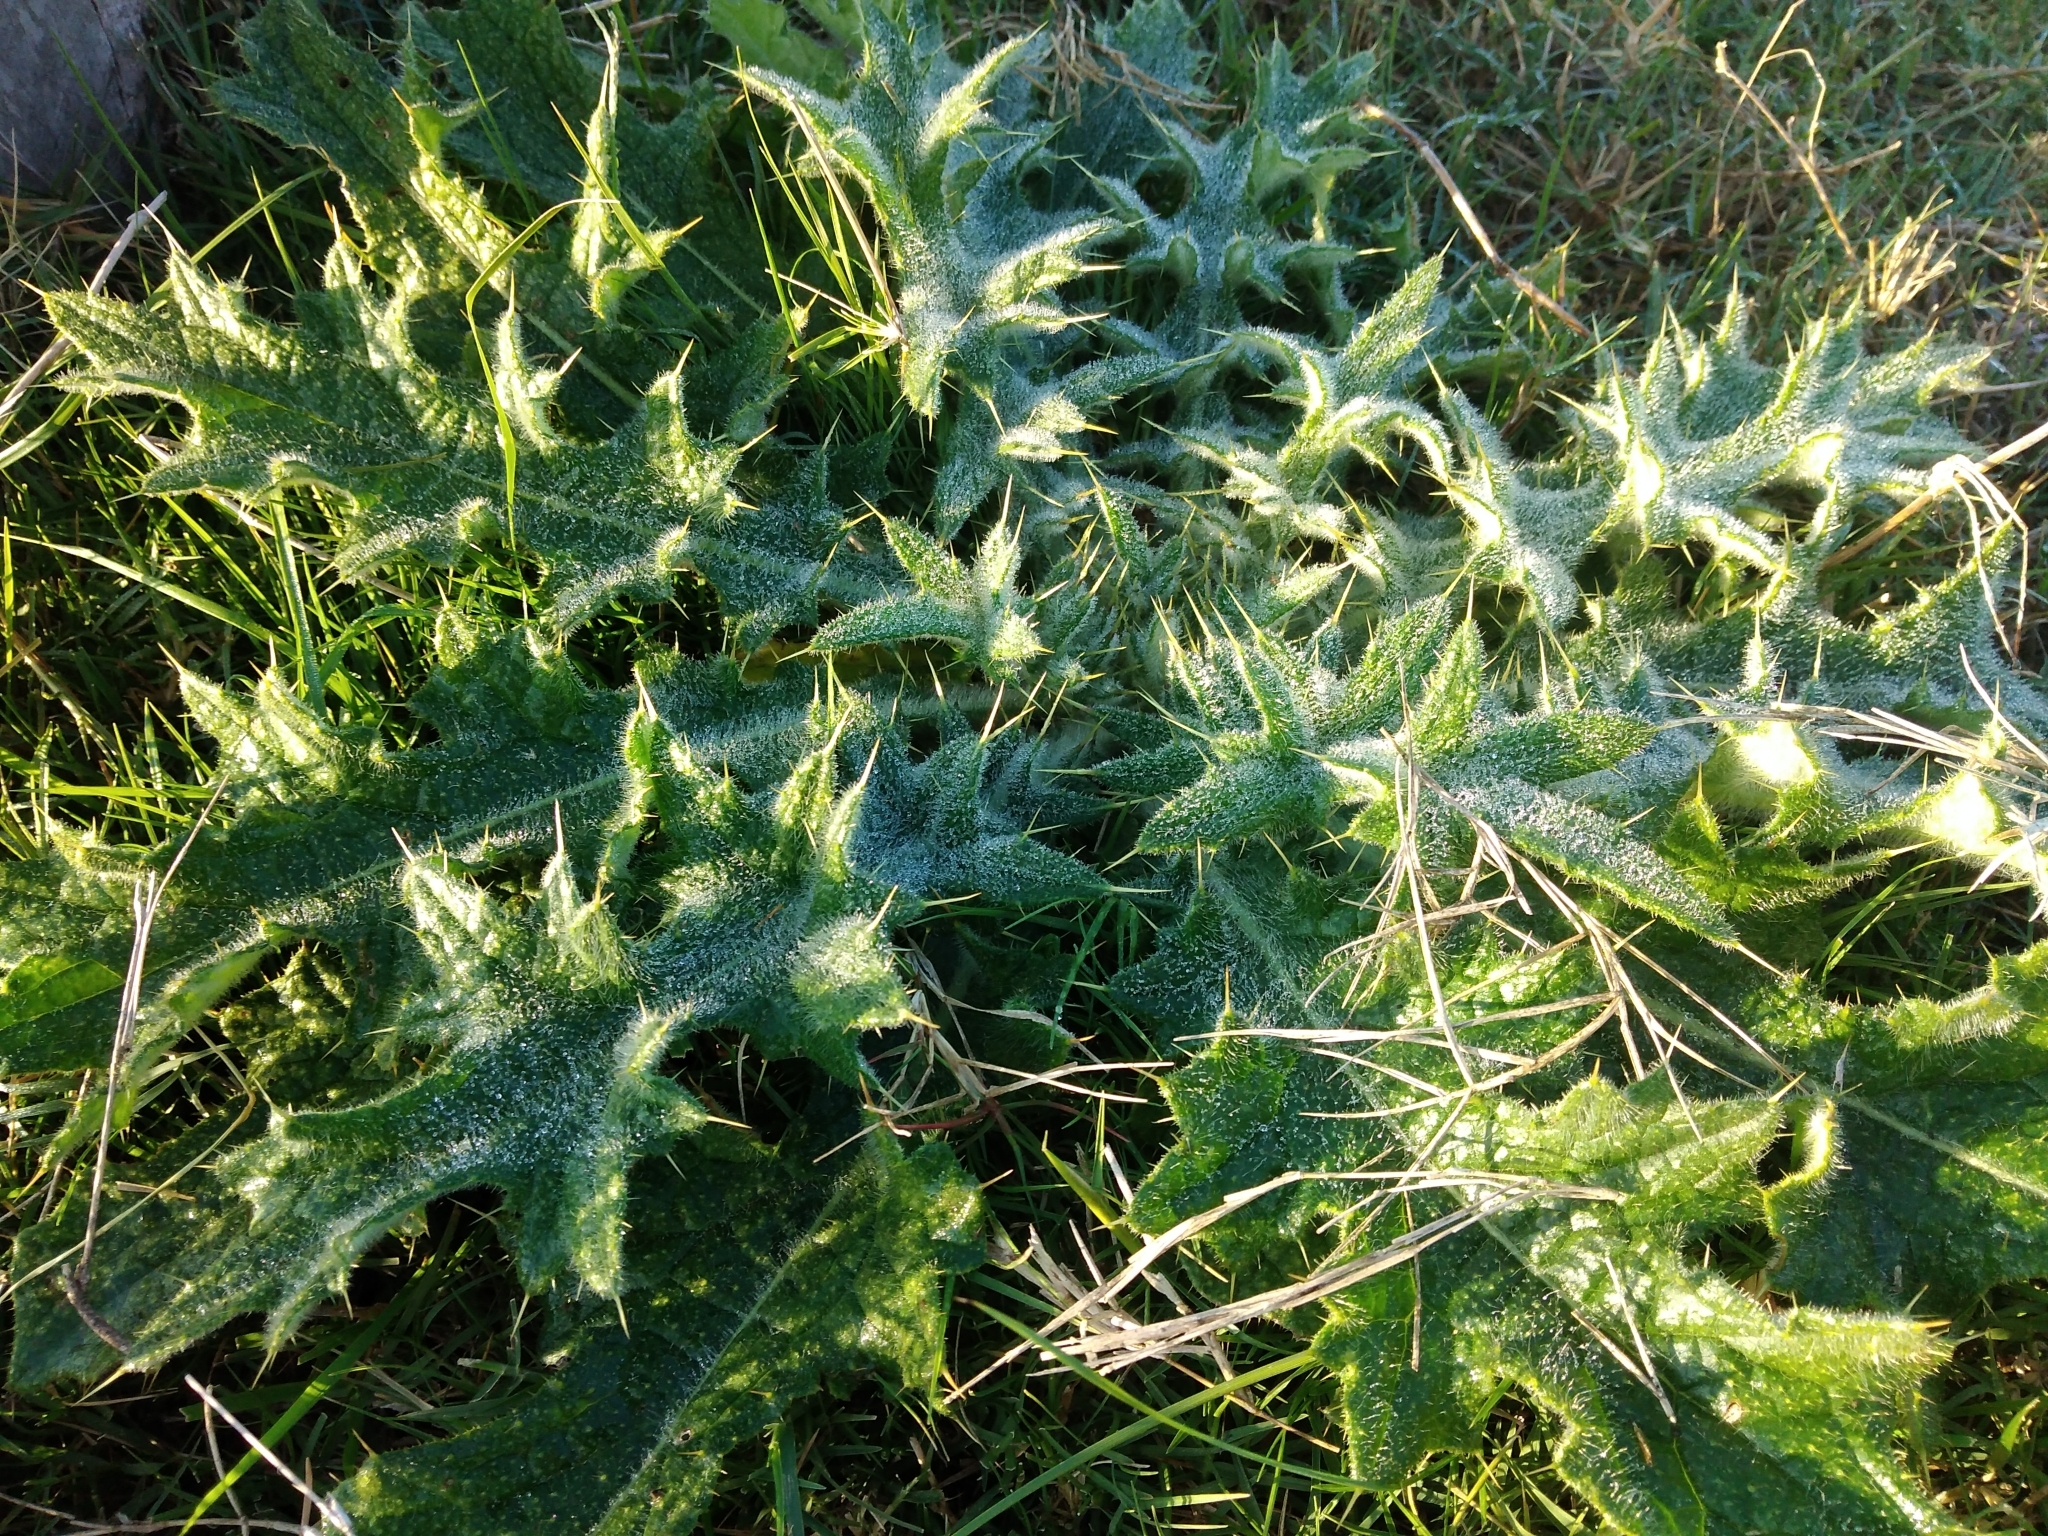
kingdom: Plantae
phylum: Tracheophyta
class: Magnoliopsida
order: Asterales
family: Asteraceae
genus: Cirsium
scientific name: Cirsium vulgare
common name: Bull thistle
